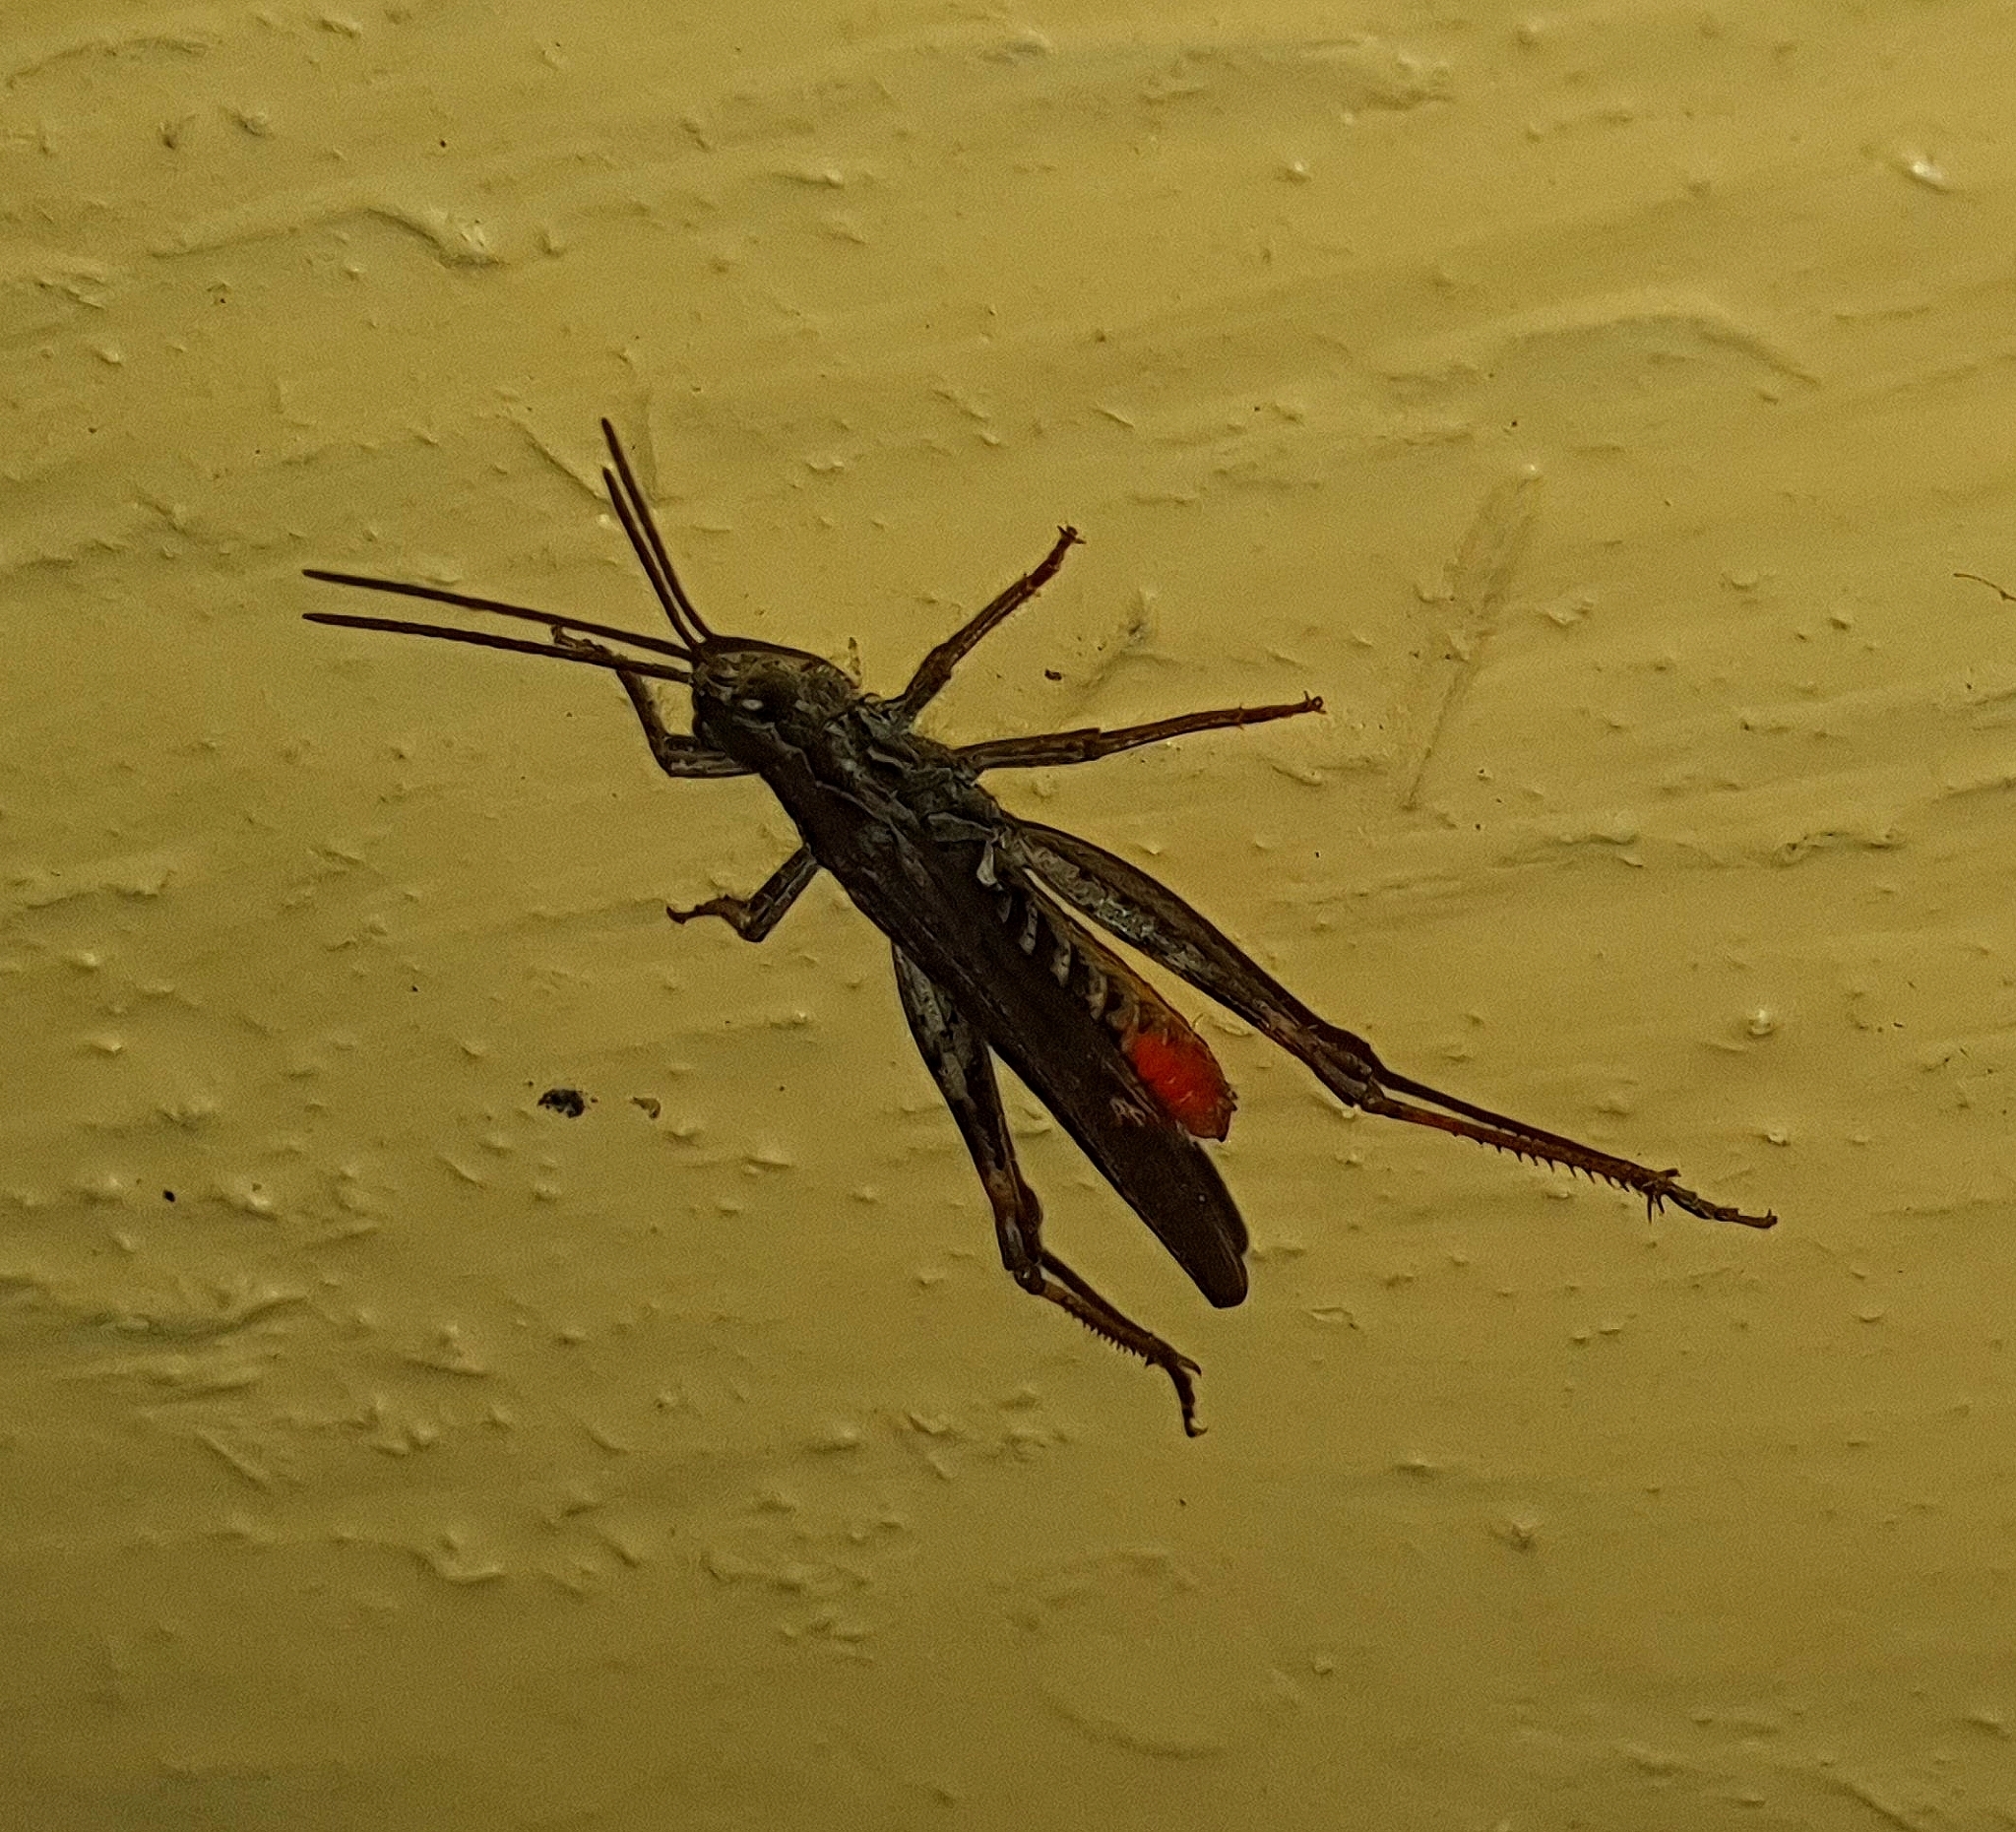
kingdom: Animalia
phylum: Arthropoda
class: Insecta
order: Orthoptera
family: Acrididae
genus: Chorthippus
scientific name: Chorthippus brunneus
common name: Field grasshopper
